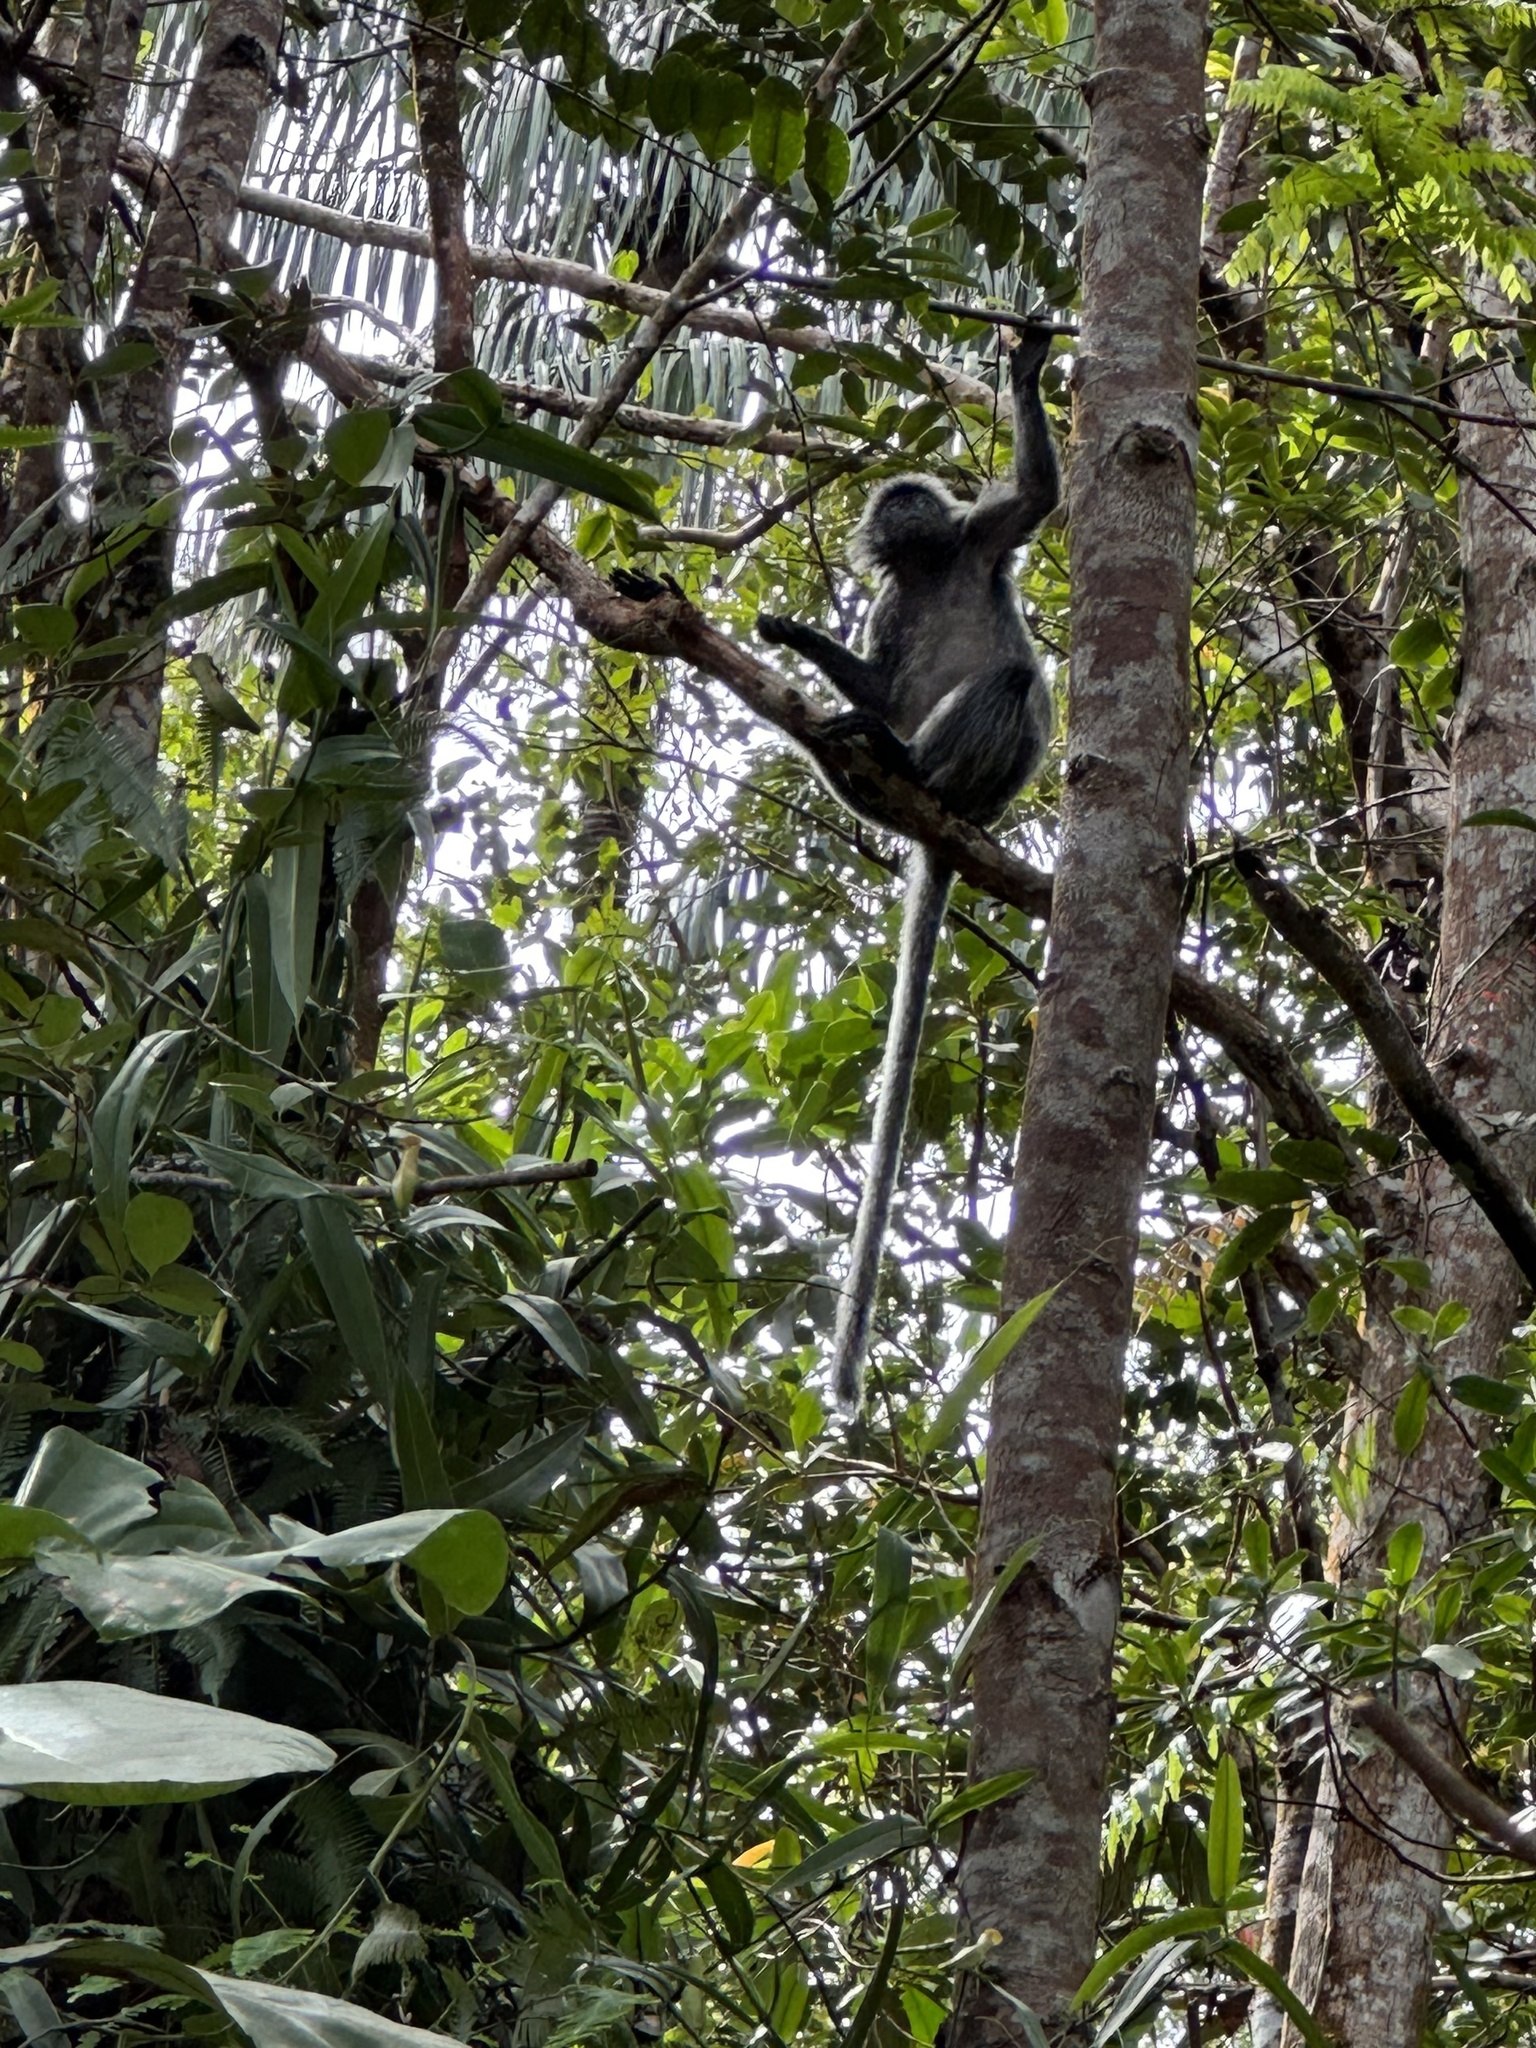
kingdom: Animalia
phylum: Chordata
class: Mammalia
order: Primates
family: Cercopithecidae
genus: Trachypithecus
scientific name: Trachypithecus cristatus
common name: Silvery lutung
